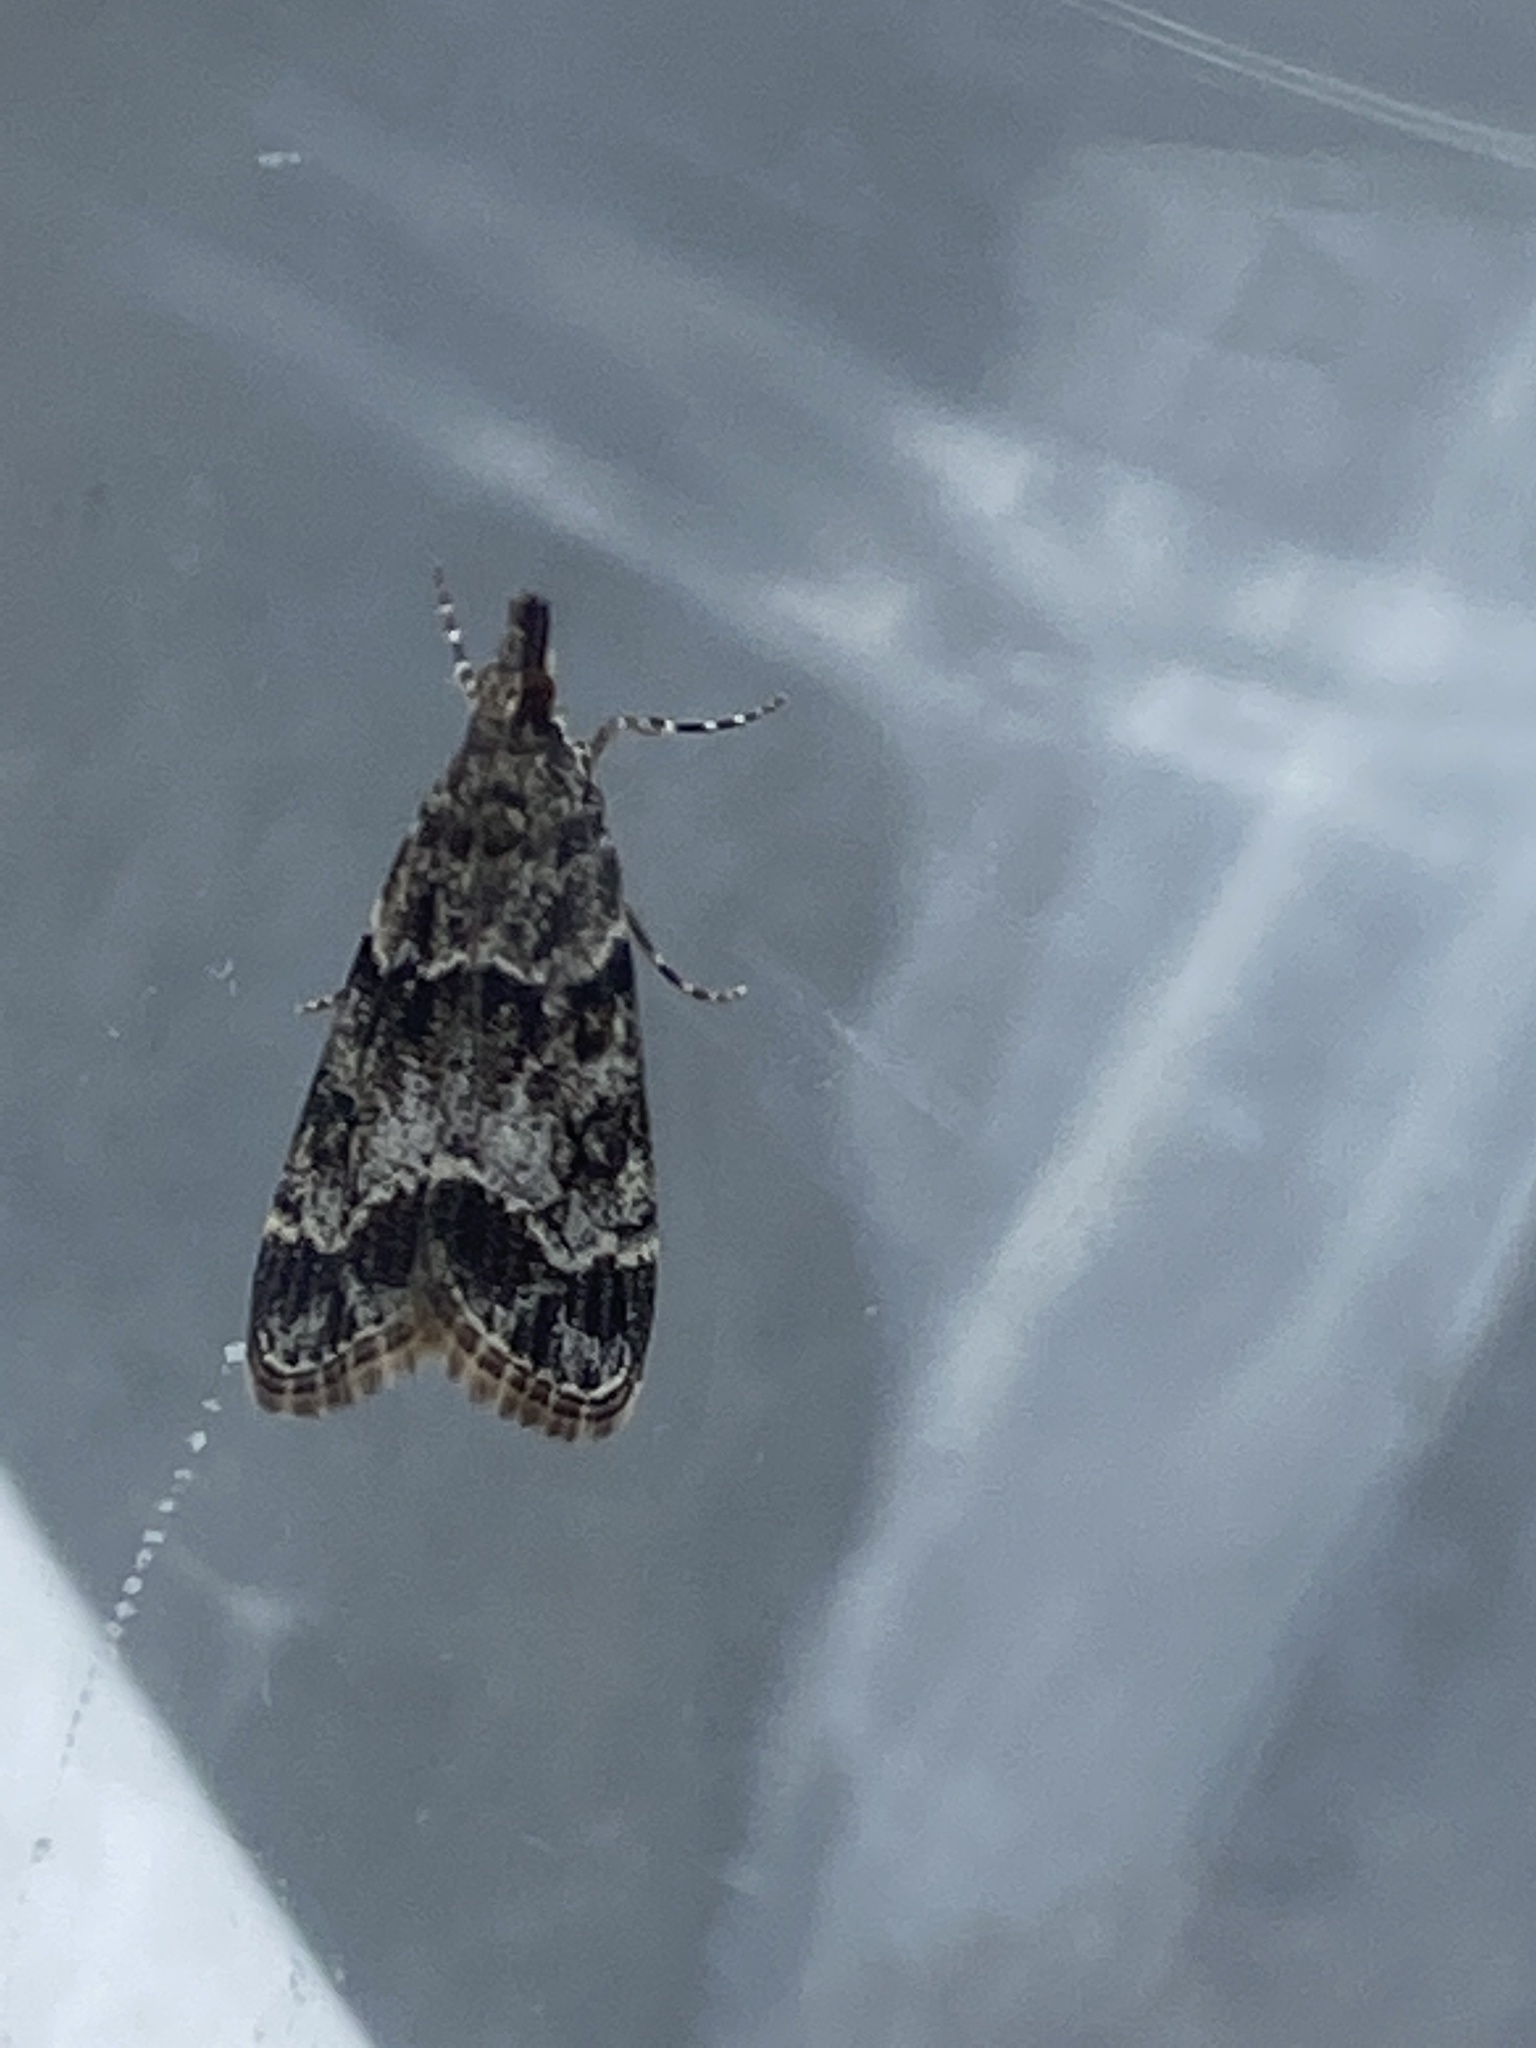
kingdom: Animalia
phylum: Arthropoda
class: Insecta
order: Lepidoptera
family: Crambidae
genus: Eudonia
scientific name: Eudonia mercurella
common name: Small grey
